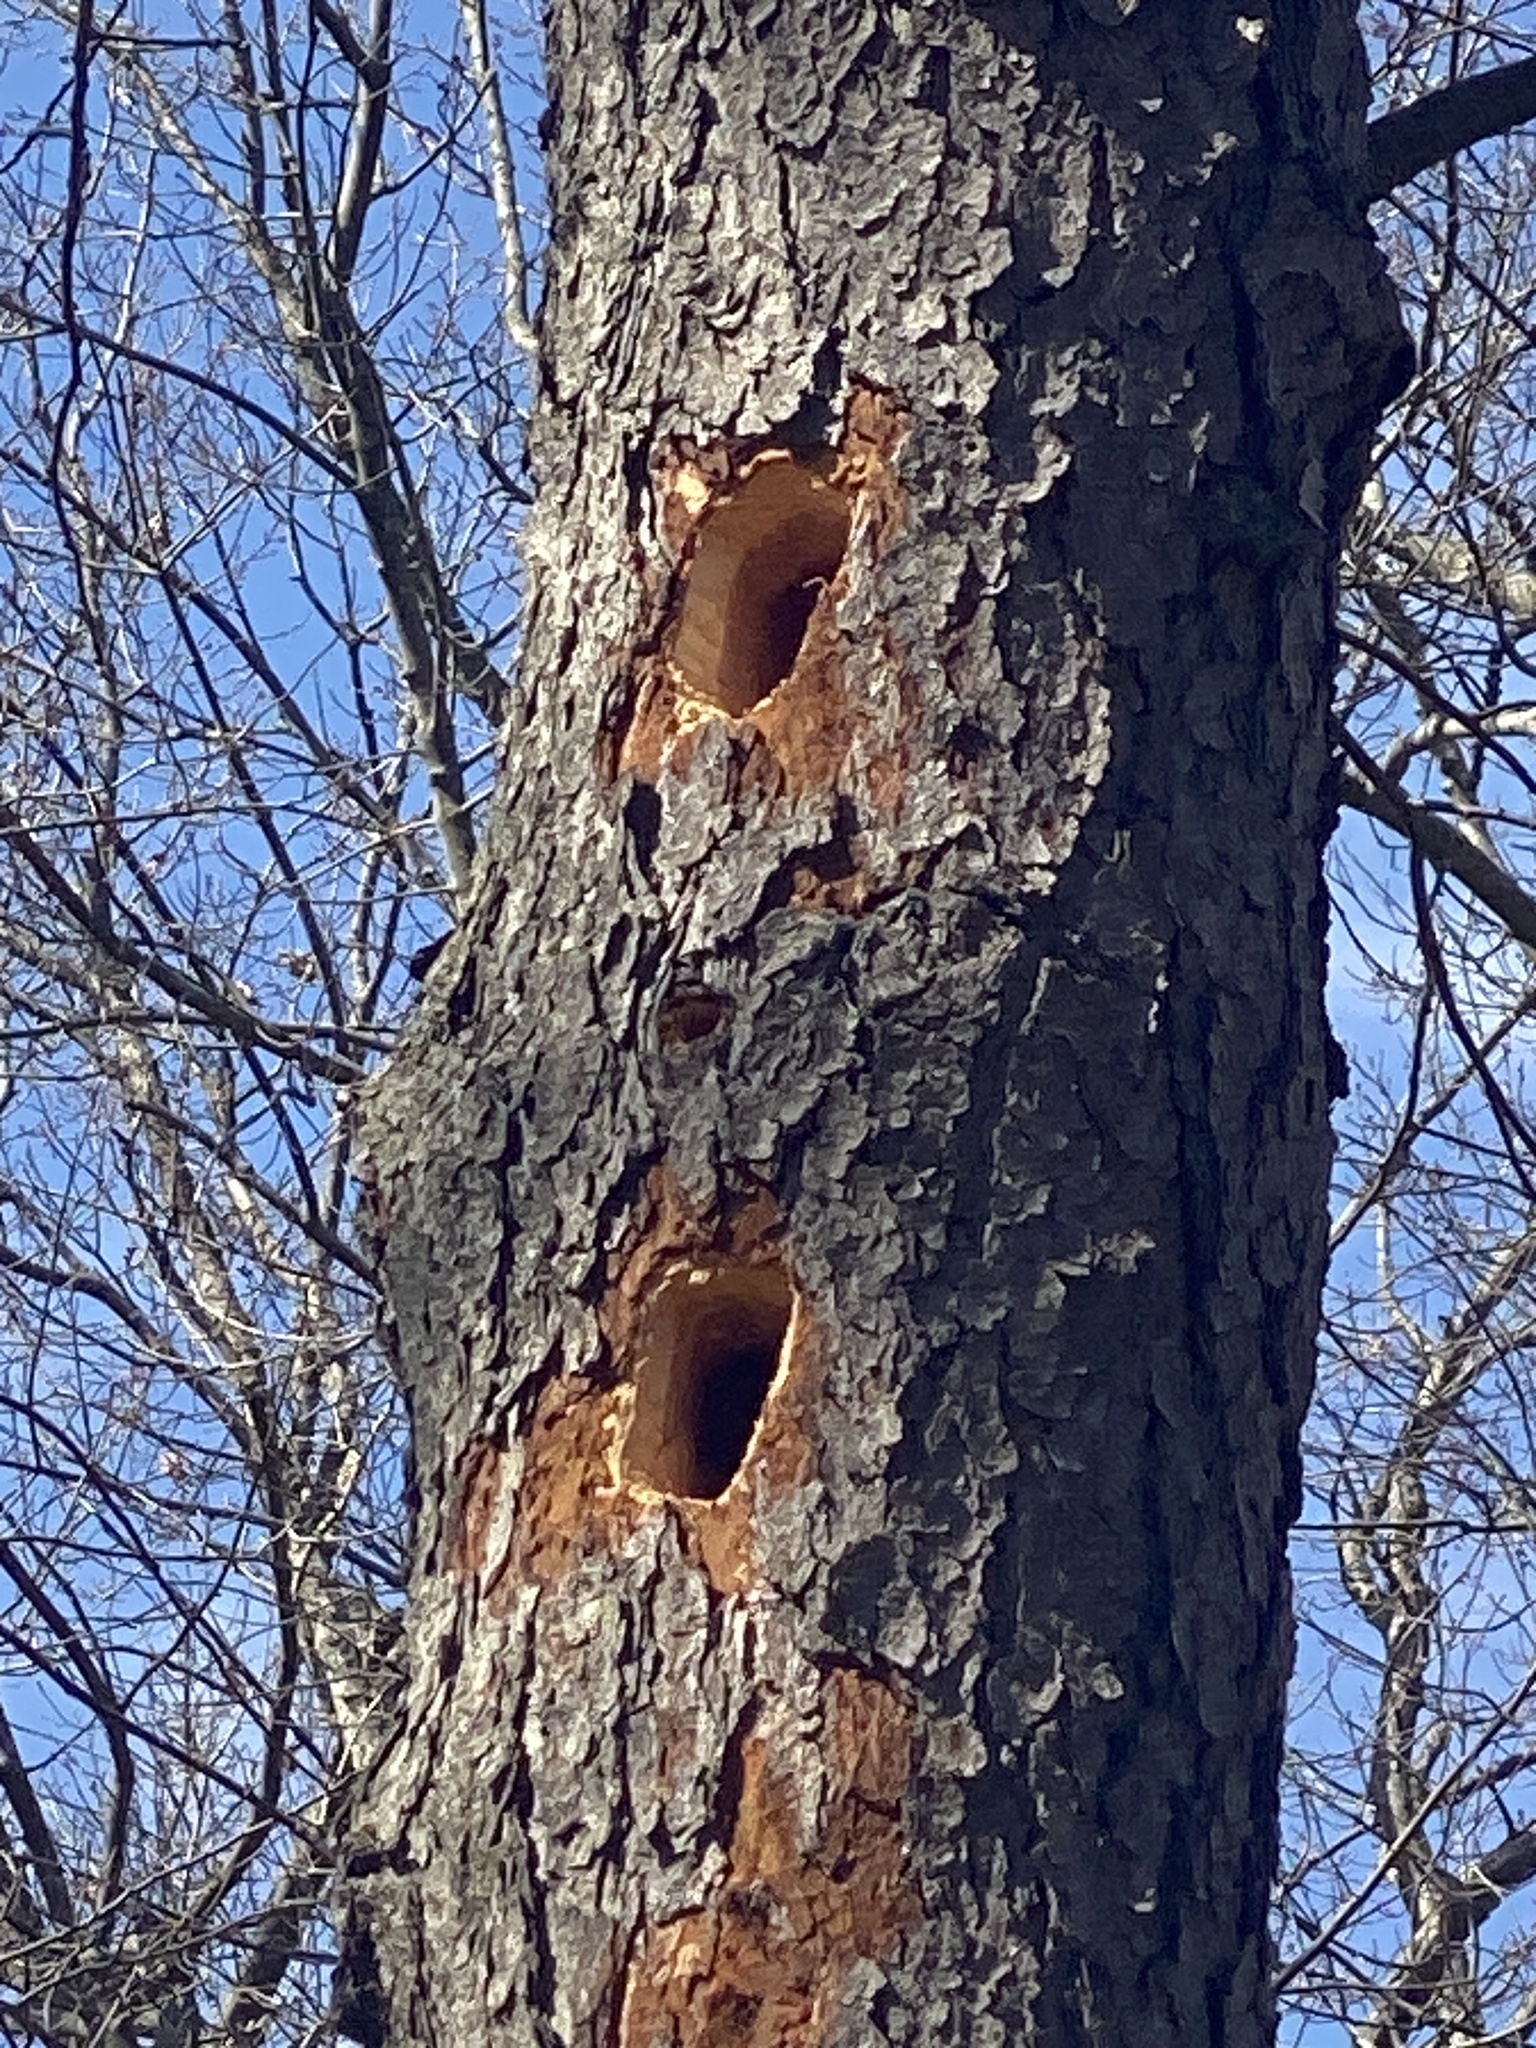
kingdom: Animalia
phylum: Chordata
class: Aves
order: Piciformes
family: Picidae
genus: Dryocopus
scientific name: Dryocopus pileatus
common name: Pileated woodpecker
